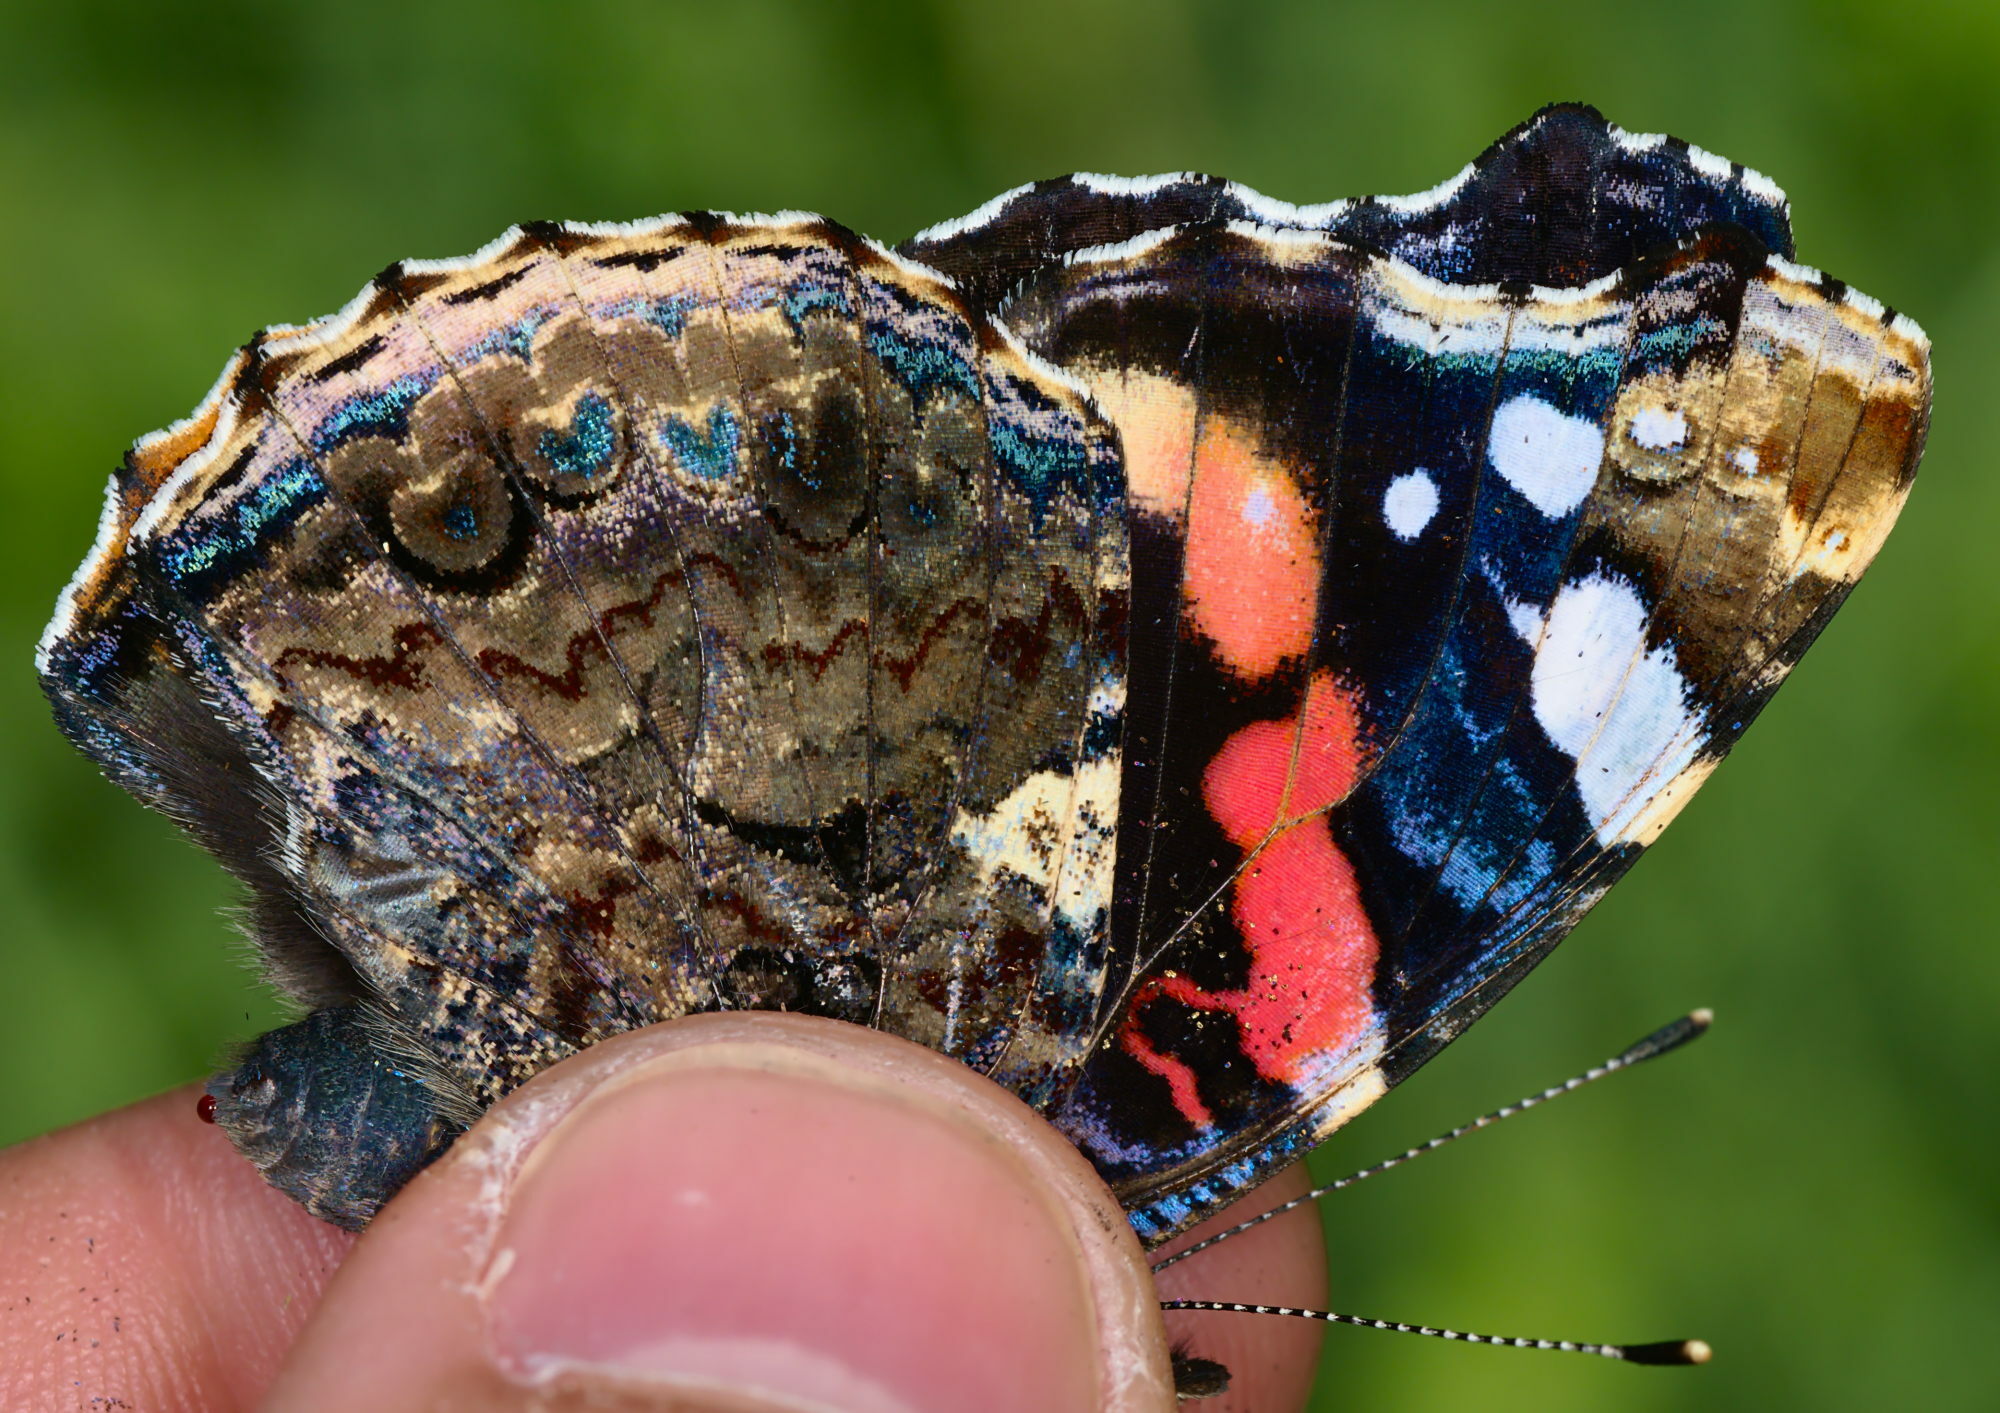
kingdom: Animalia
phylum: Arthropoda
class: Insecta
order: Lepidoptera
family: Nymphalidae
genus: Vanessa
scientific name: Vanessa atalanta
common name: Red admiral
